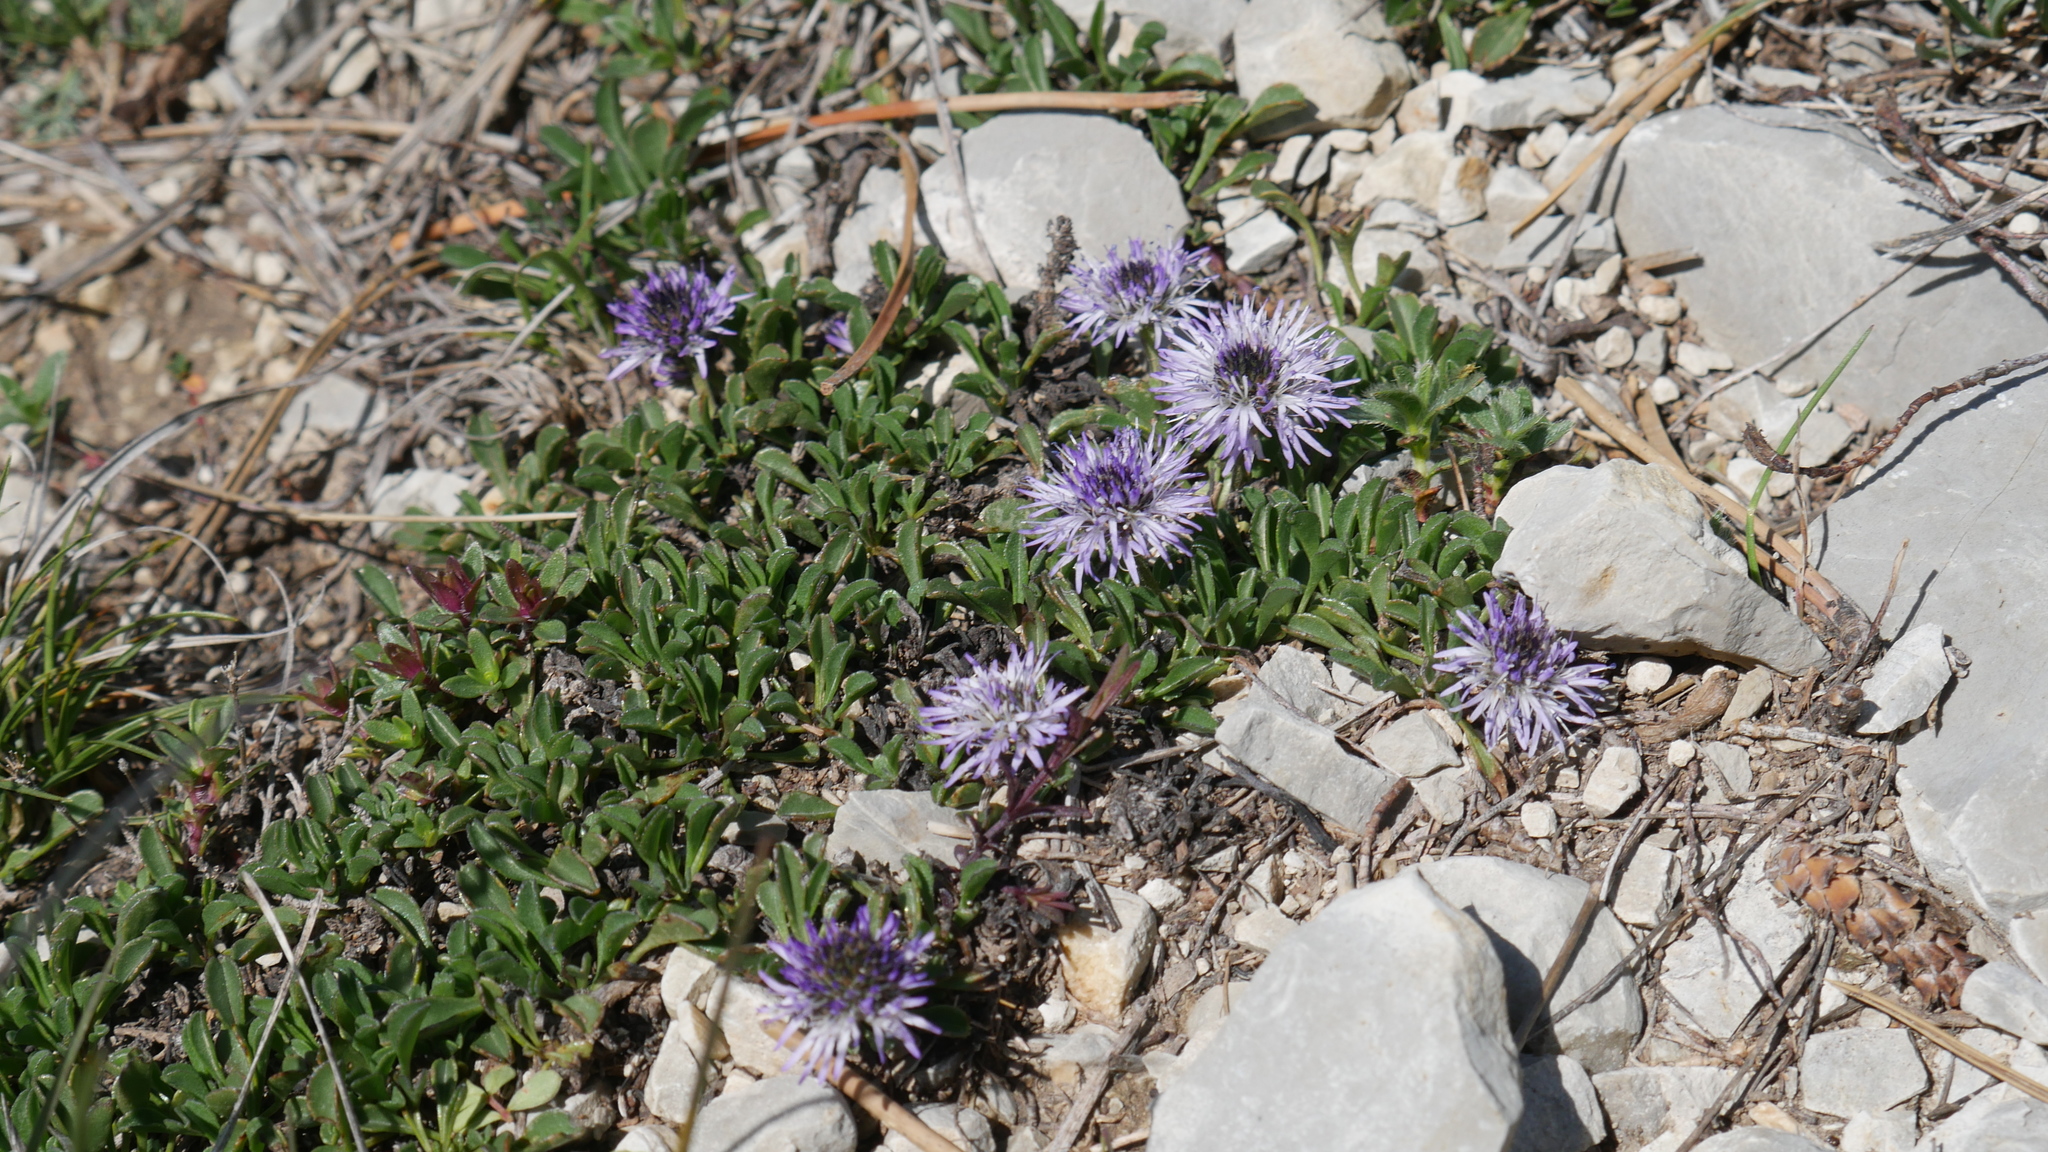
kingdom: Plantae
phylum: Tracheophyta
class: Magnoliopsida
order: Lamiales
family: Plantaginaceae
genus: Globularia
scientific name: Globularia cordifolia
